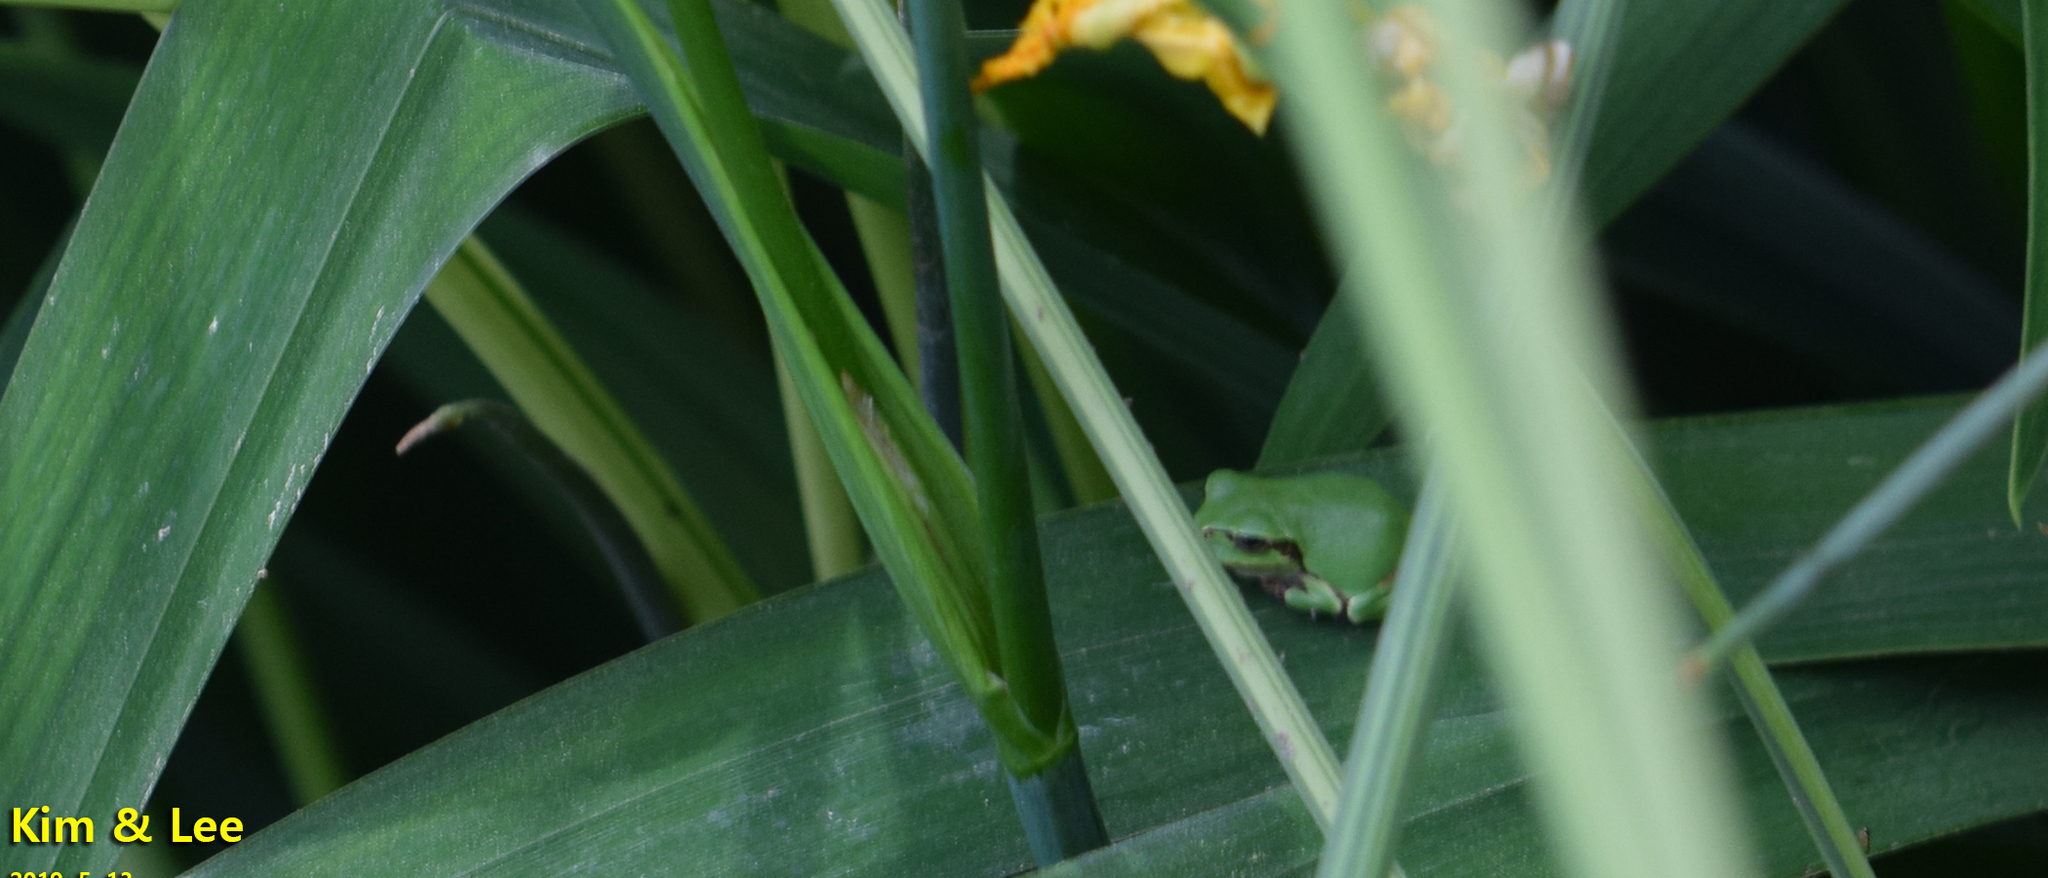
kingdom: Animalia
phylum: Chordata
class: Amphibia
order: Anura
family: Hylidae
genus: Dryophytes
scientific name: Dryophytes japonicus
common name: Japanese treefrog
